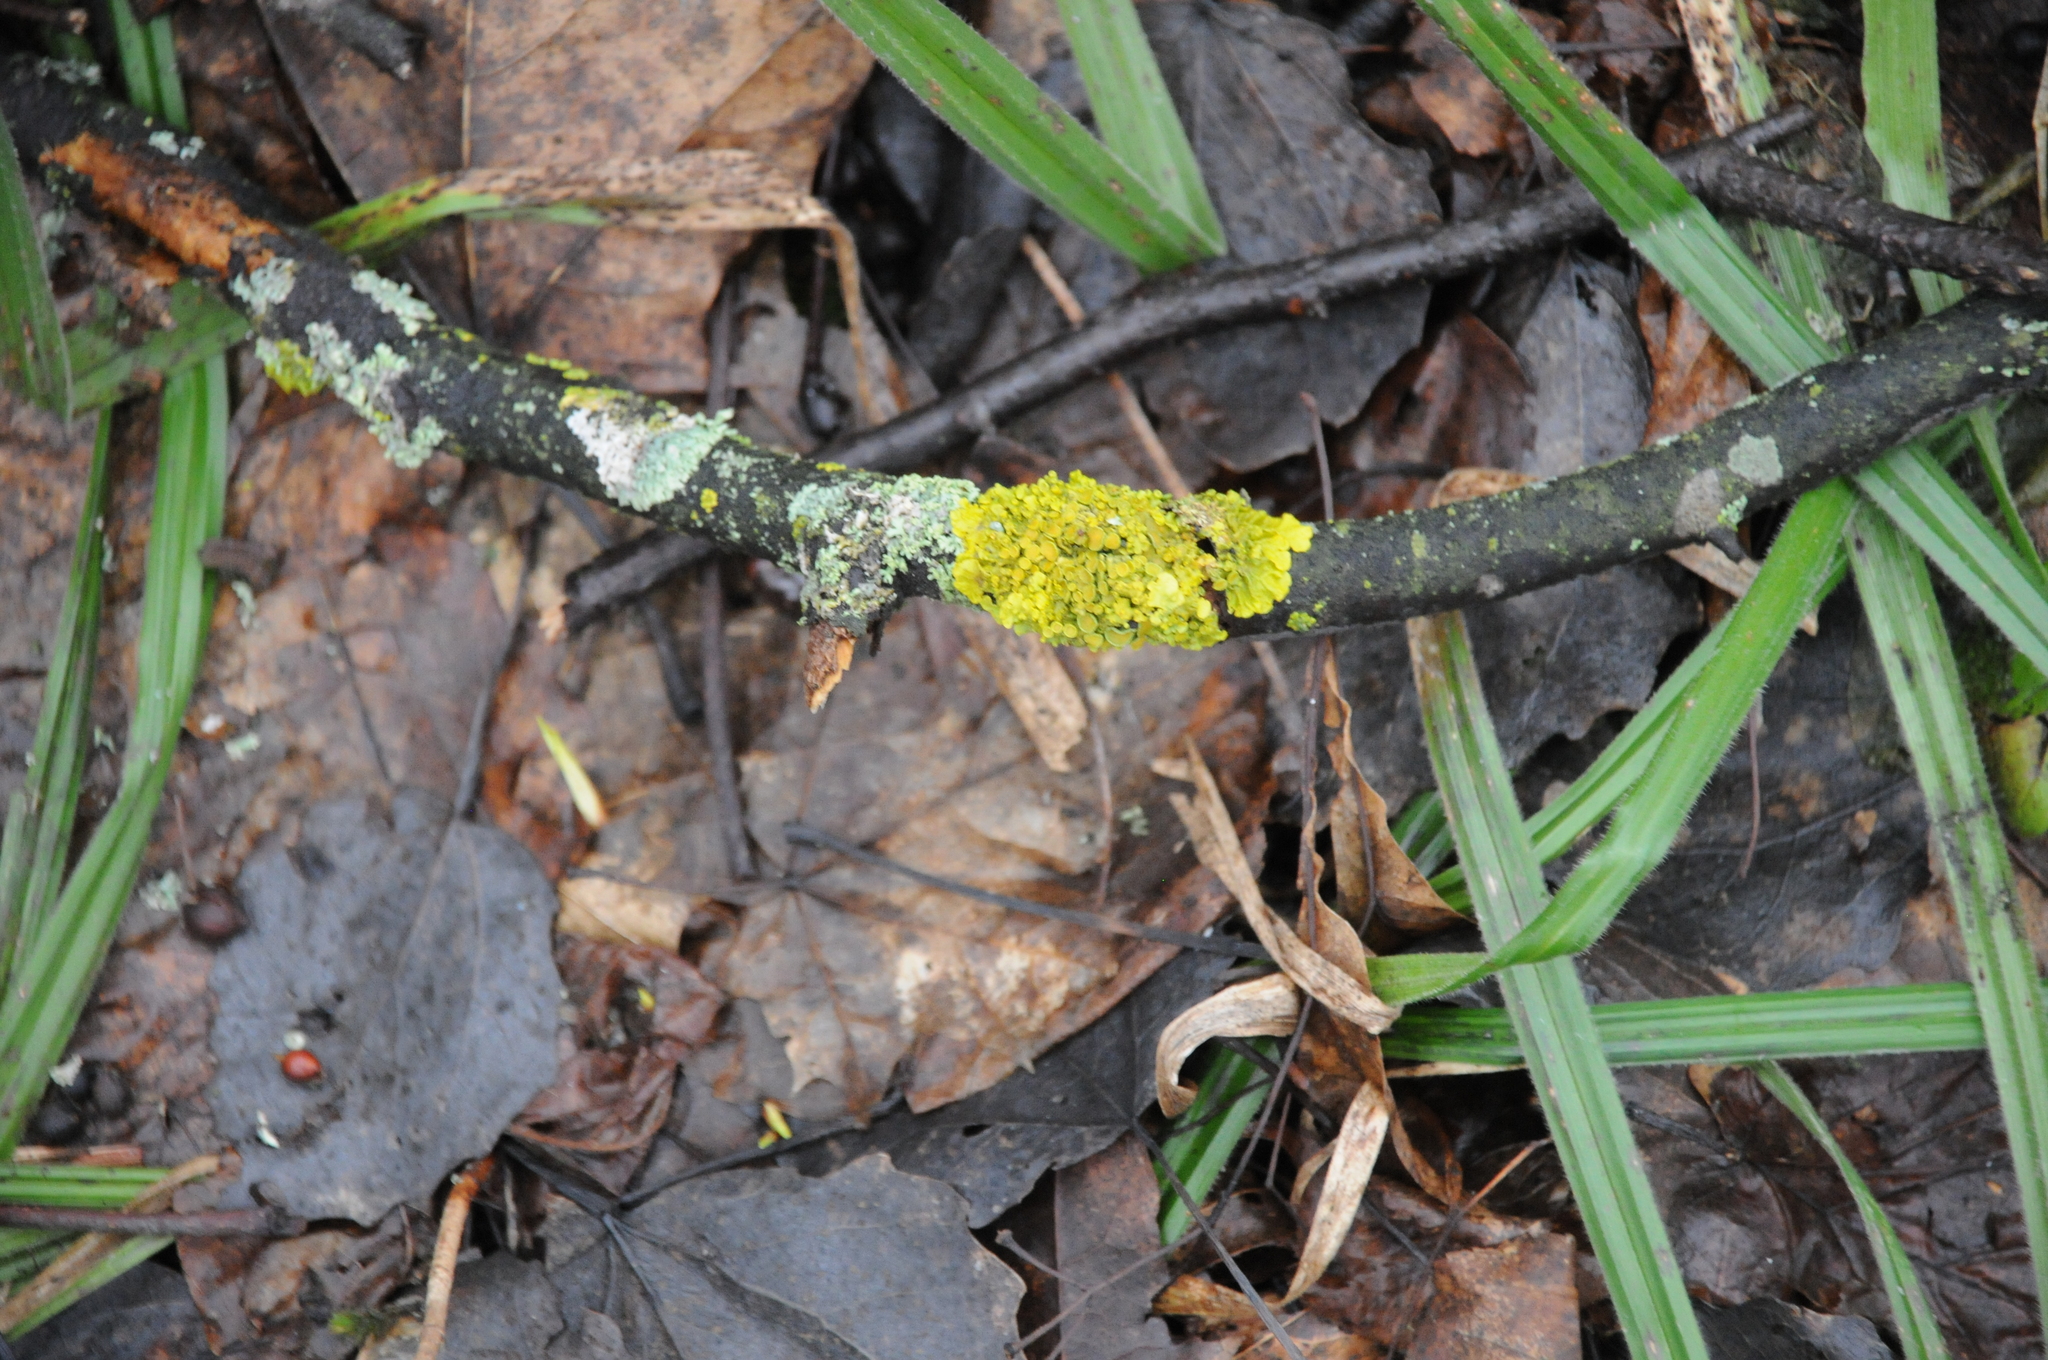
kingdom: Fungi
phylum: Ascomycota
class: Lecanoromycetes
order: Teloschistales
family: Teloschistaceae
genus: Xanthoria
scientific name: Xanthoria parietina
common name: Common orange lichen
